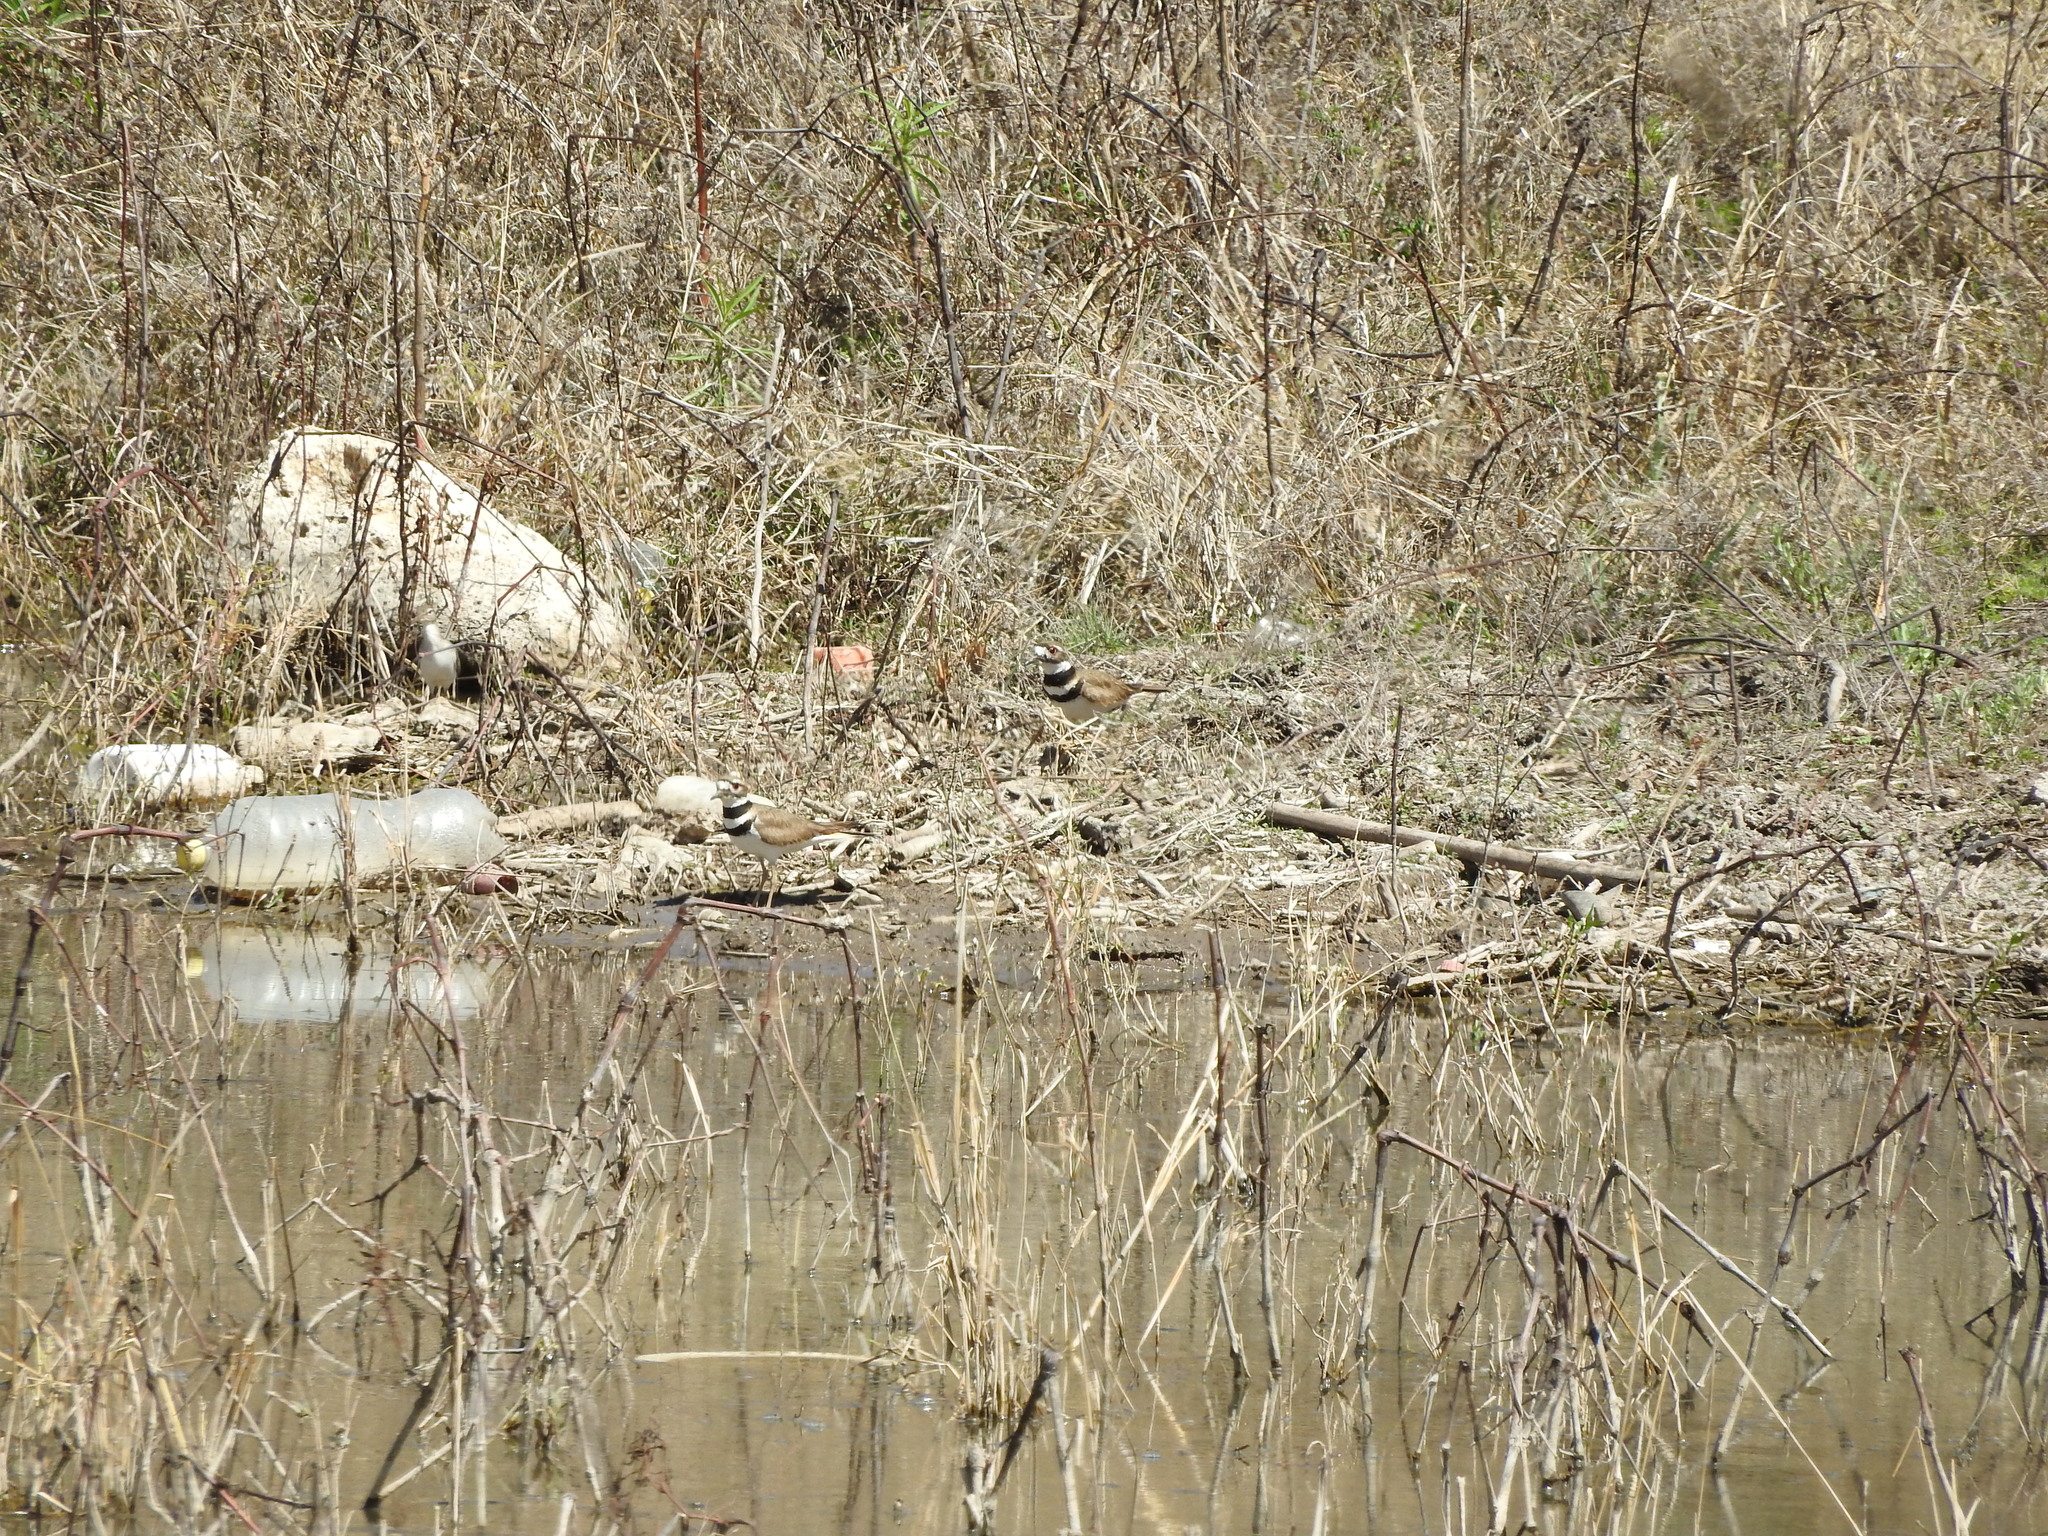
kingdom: Animalia
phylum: Chordata
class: Aves
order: Charadriiformes
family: Charadriidae
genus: Charadrius
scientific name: Charadrius vociferus
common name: Killdeer
